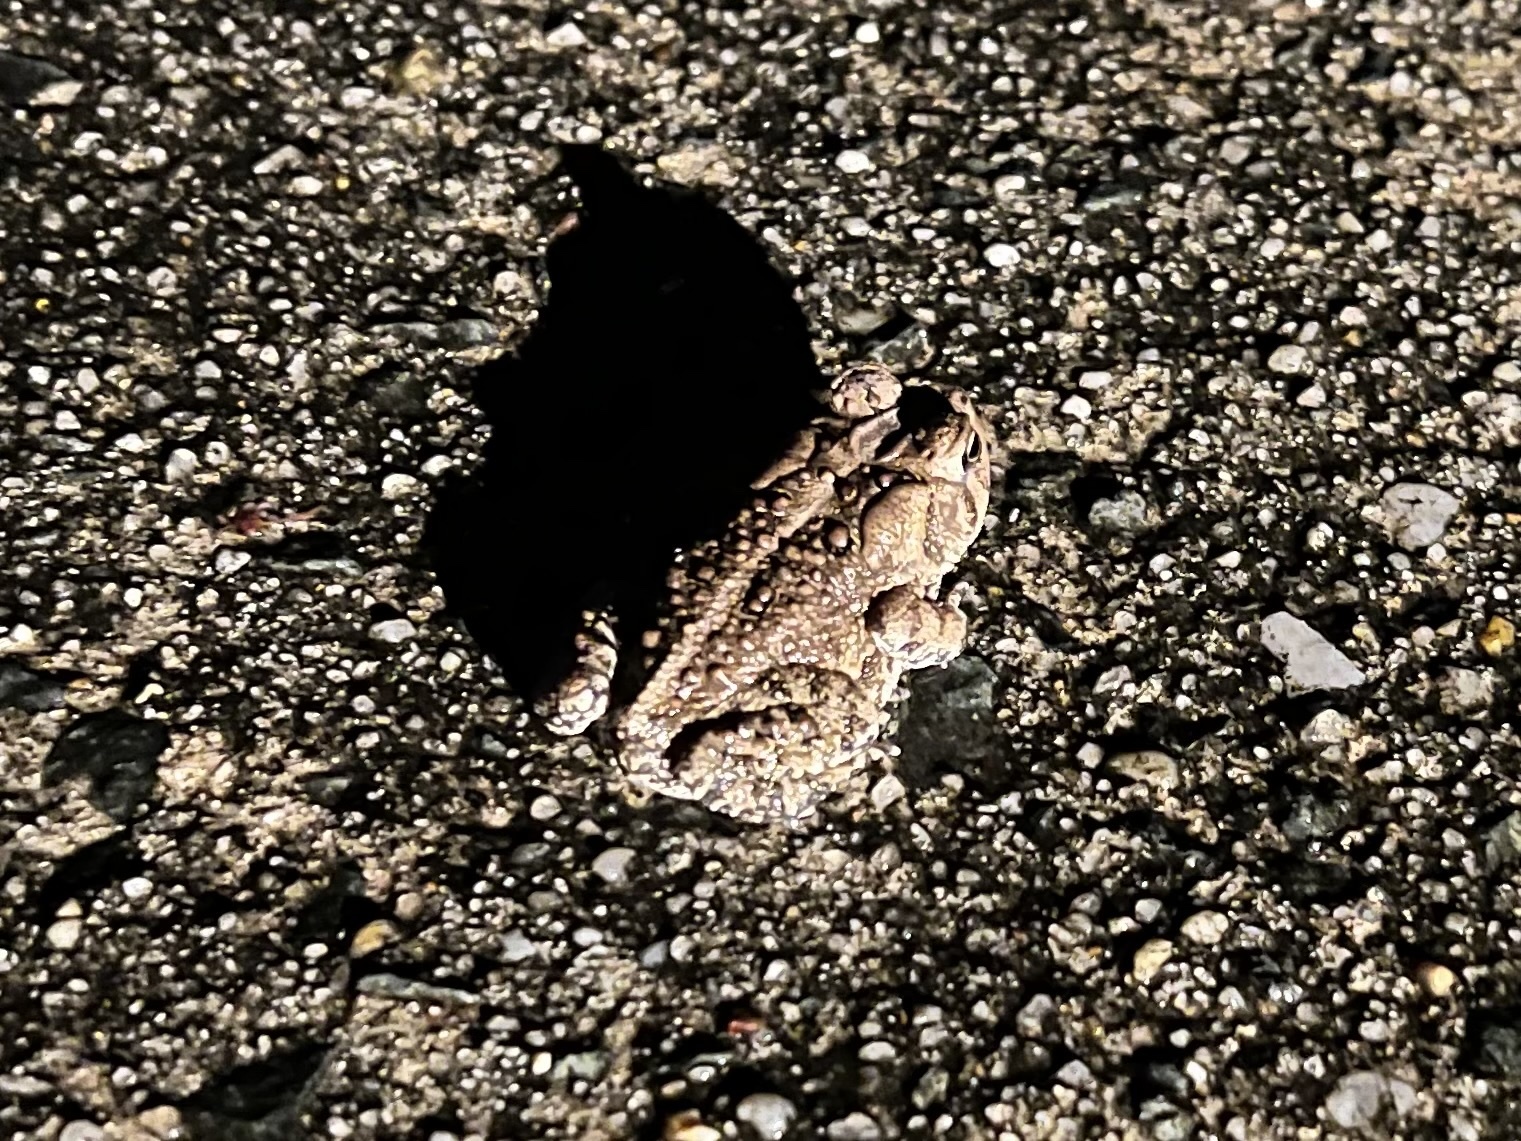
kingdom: Animalia
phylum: Chordata
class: Amphibia
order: Anura
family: Bufonidae
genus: Anaxyrus
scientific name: Anaxyrus americanus
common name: American toad
